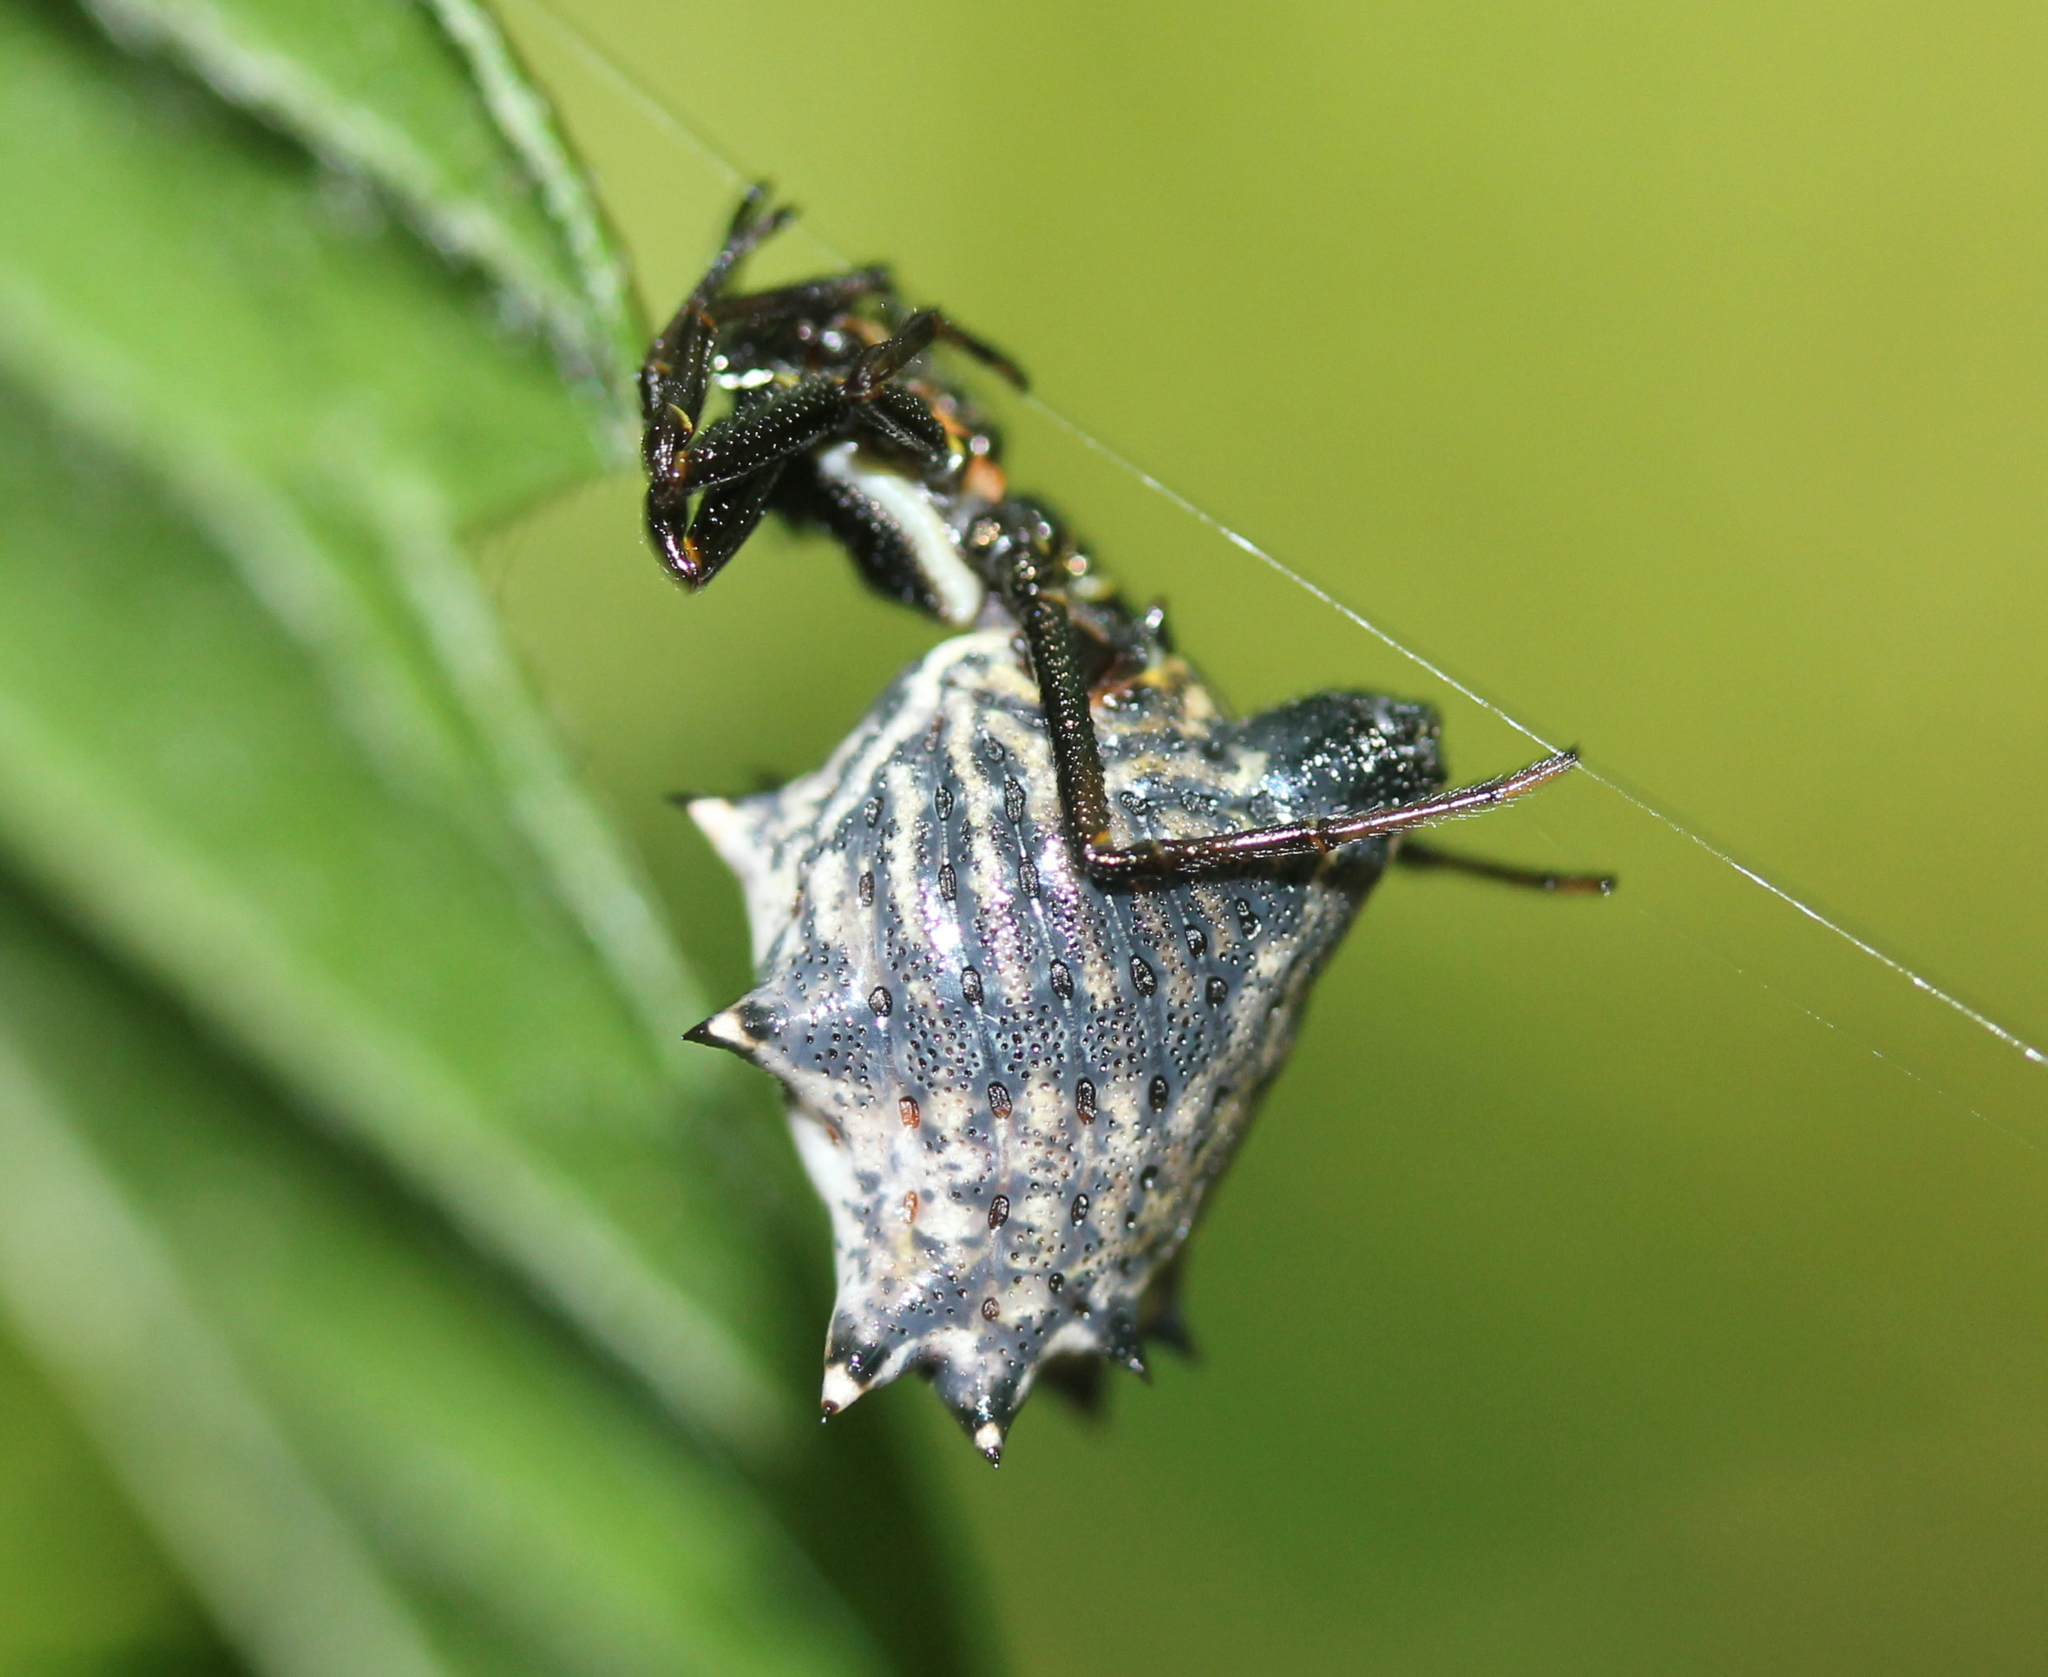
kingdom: Animalia
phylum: Arthropoda
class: Arachnida
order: Araneae
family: Araneidae
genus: Micrathena
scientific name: Micrathena gracilis
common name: Orb weavers
